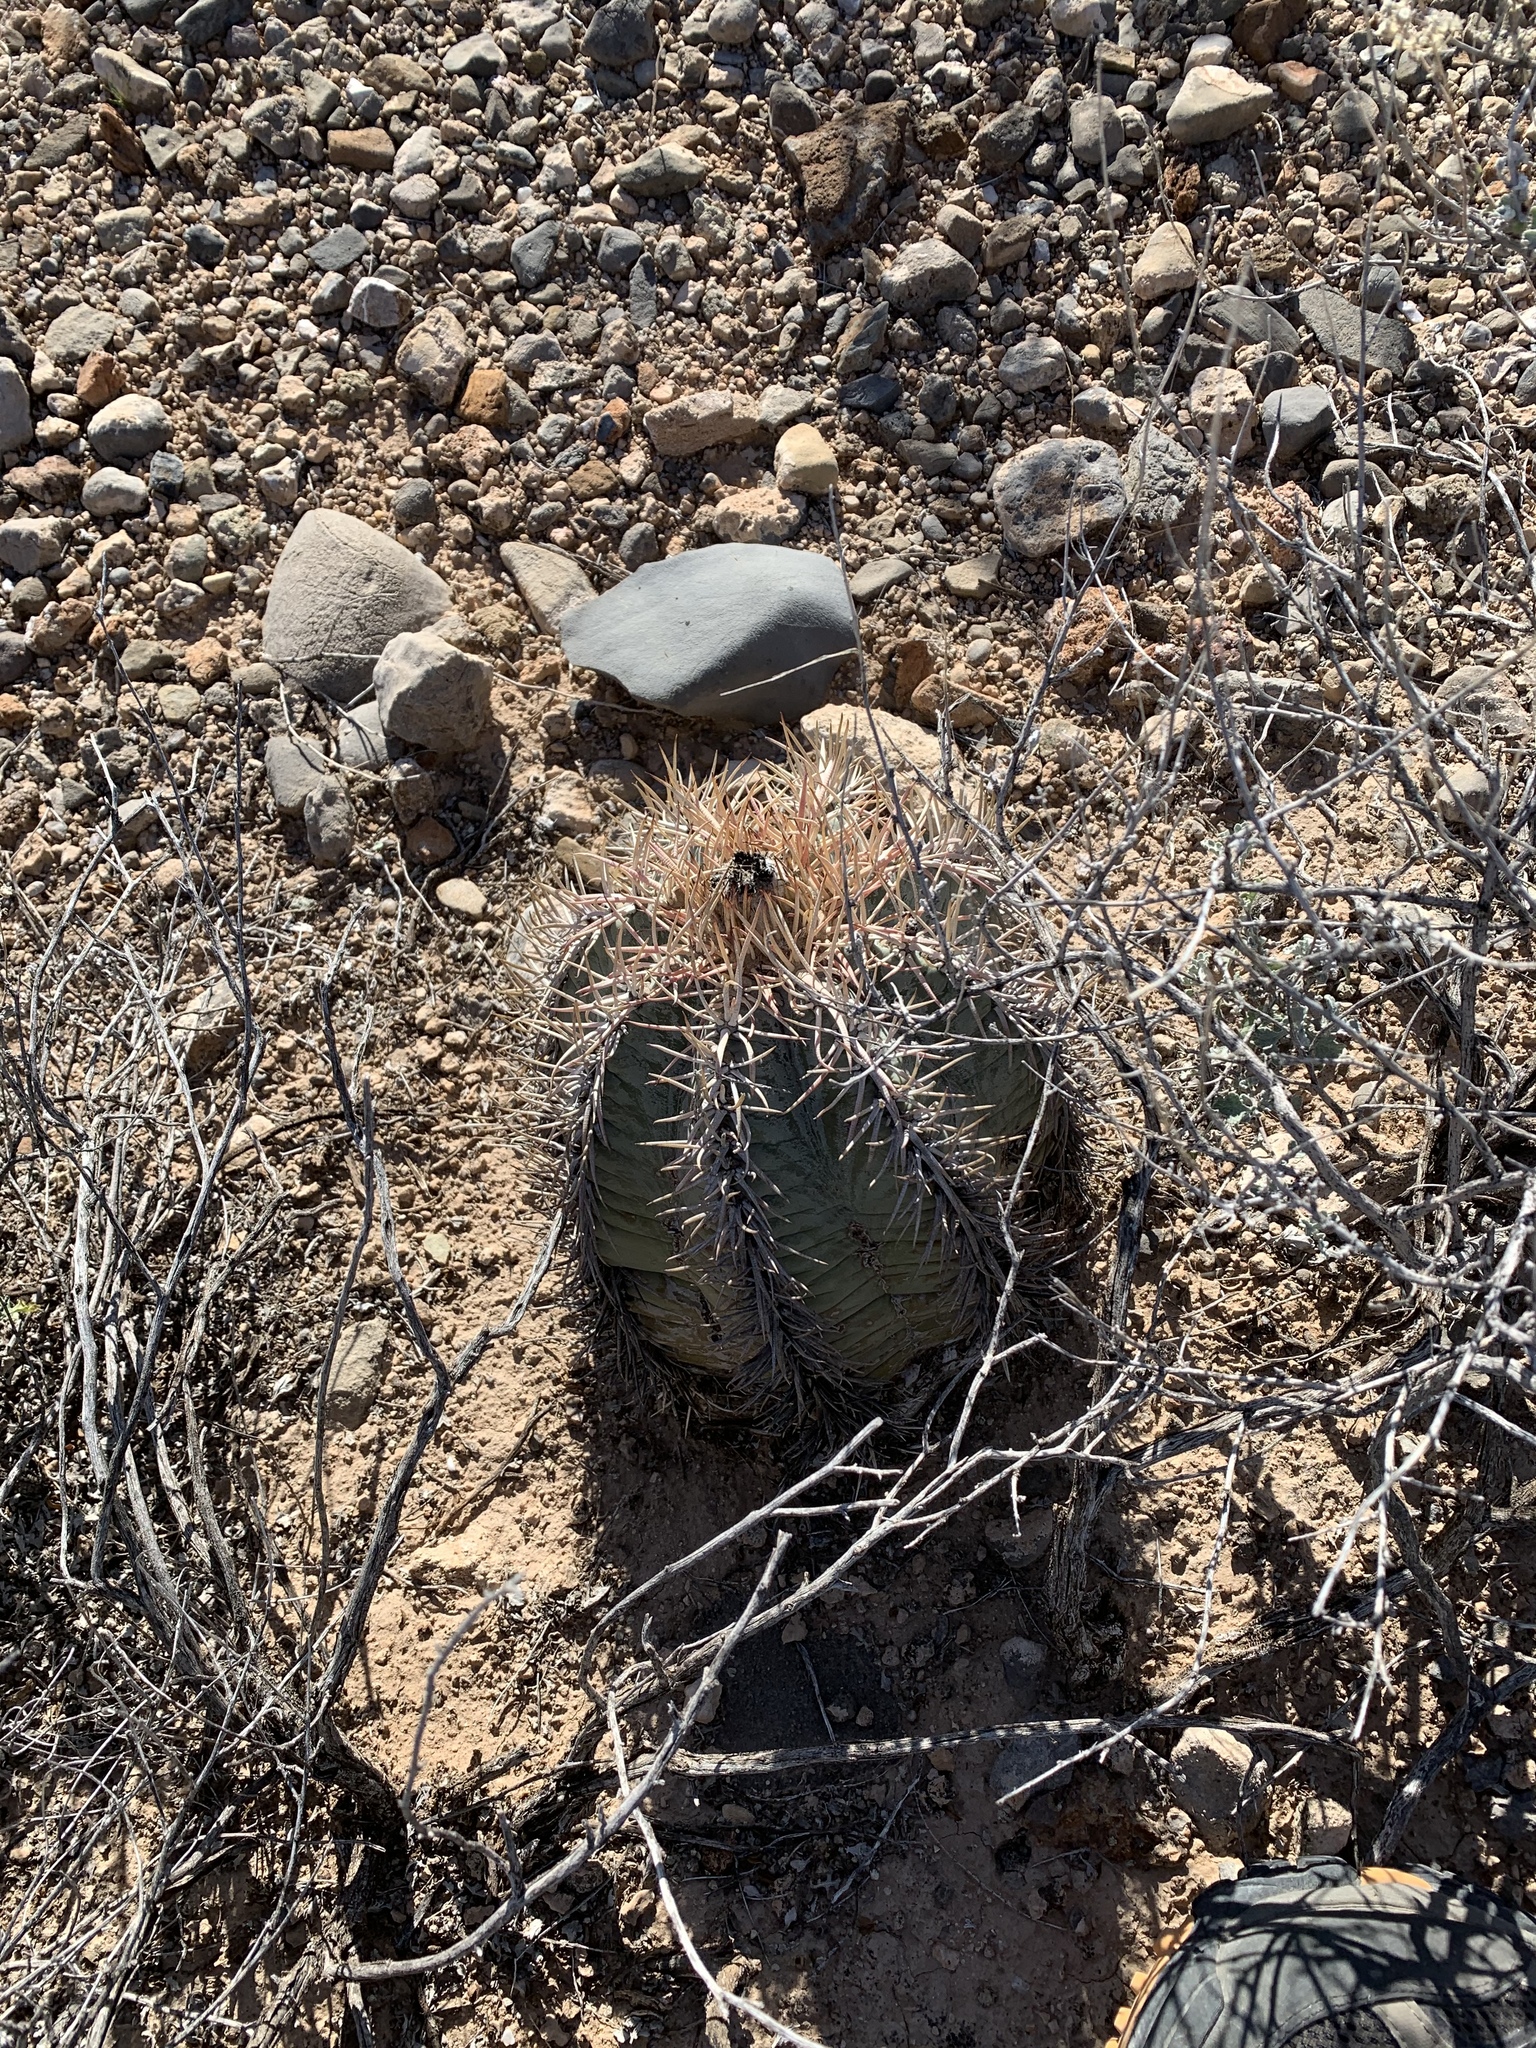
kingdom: Plantae
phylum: Tracheophyta
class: Magnoliopsida
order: Caryophyllales
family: Cactaceae
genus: Echinocactus
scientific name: Echinocactus horizonthalonius
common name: Devilshead
